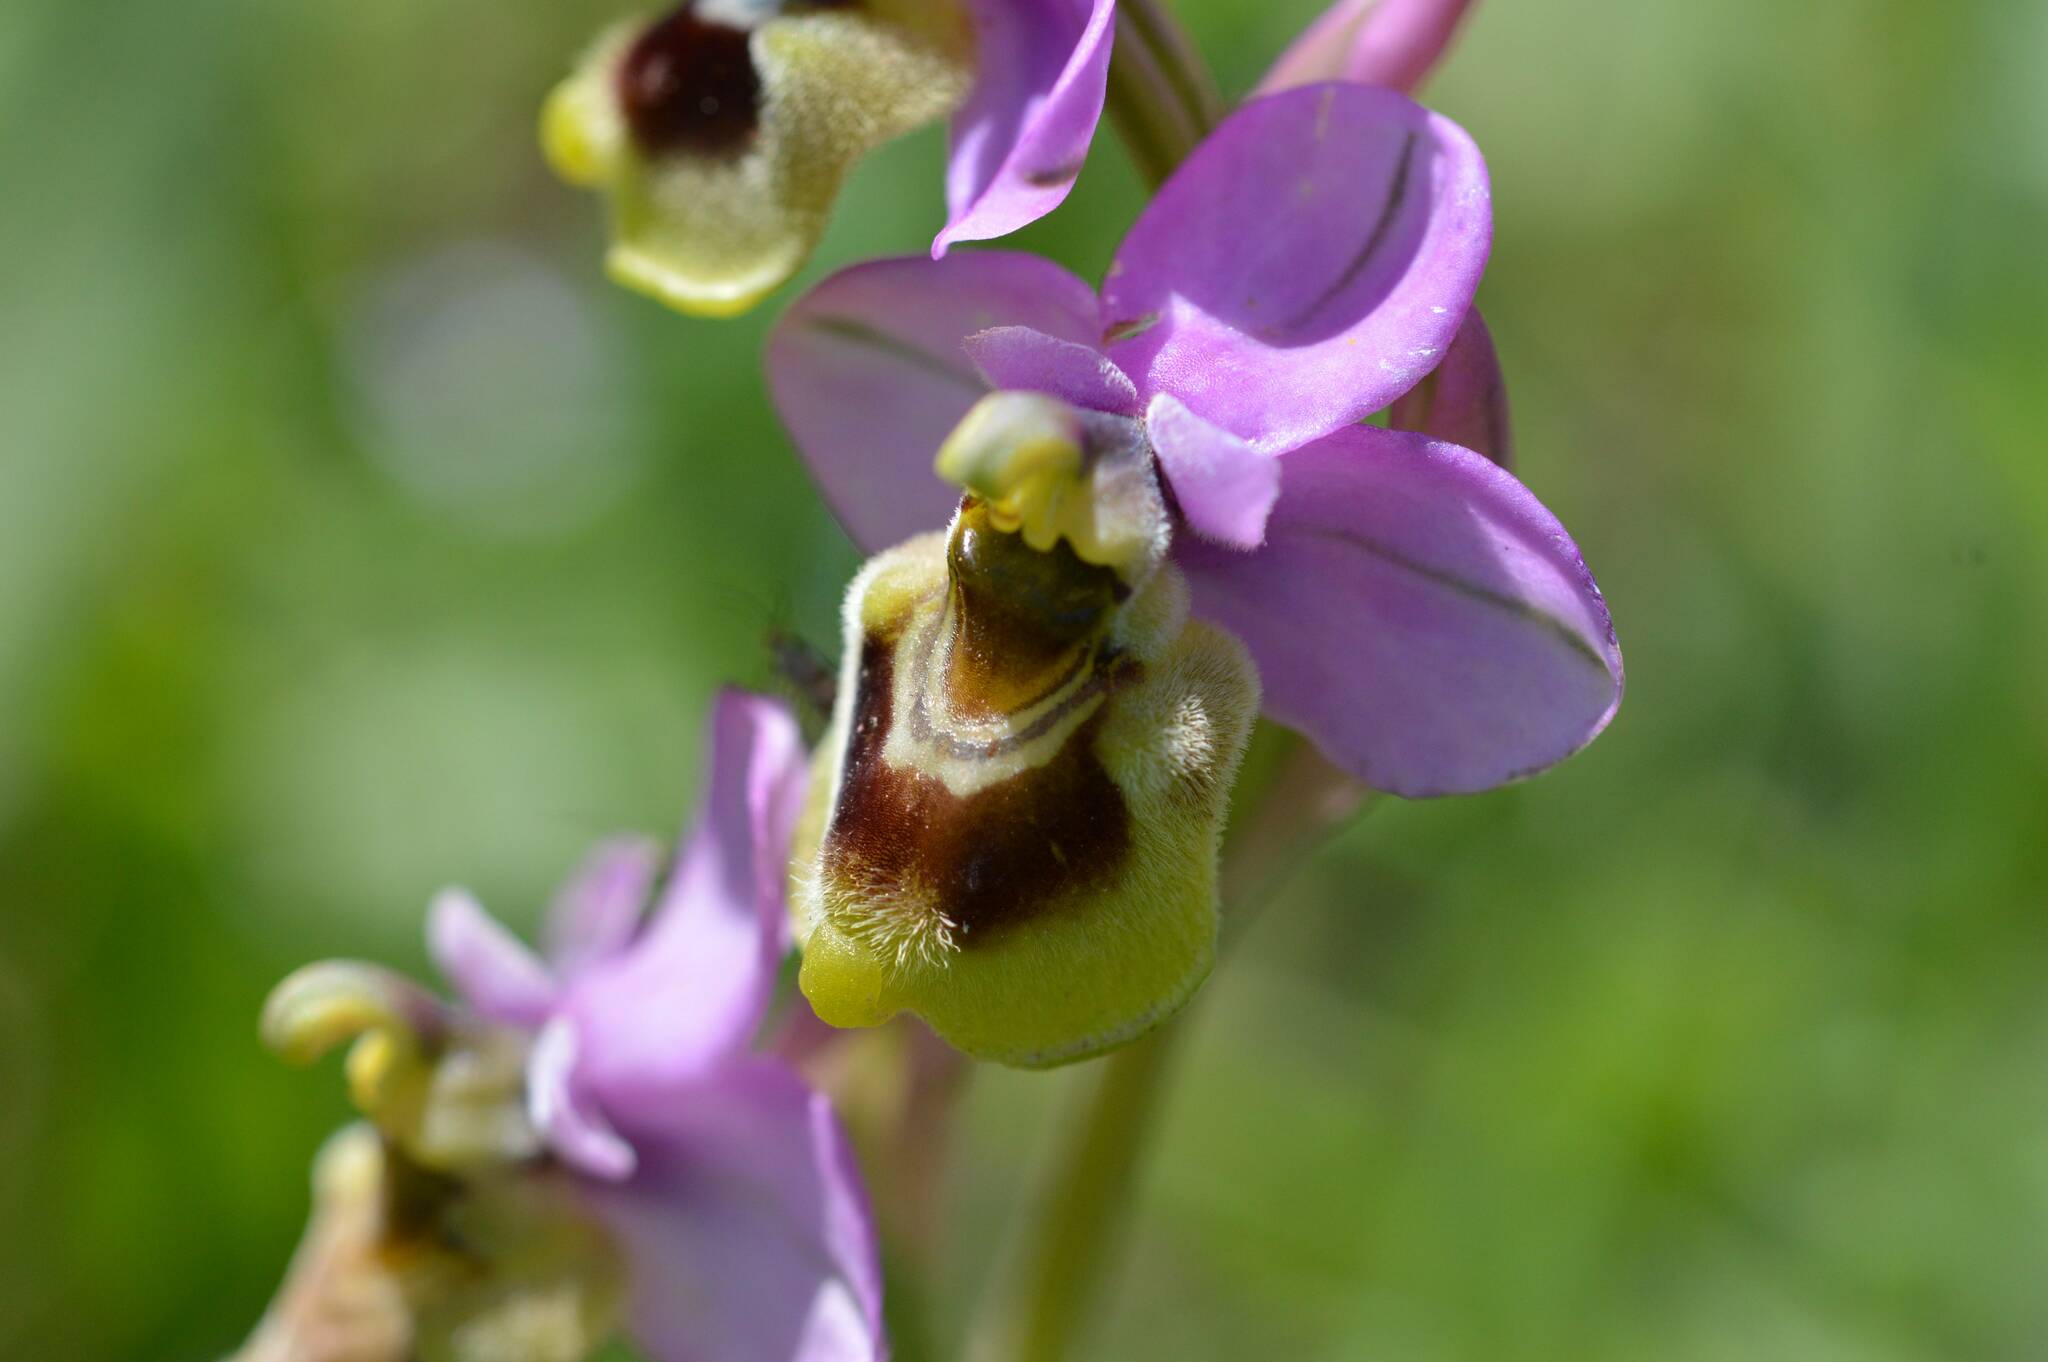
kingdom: Plantae
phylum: Tracheophyta
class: Liliopsida
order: Asparagales
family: Orchidaceae
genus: Ophrys
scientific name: Ophrys tenthredinifera
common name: Sawfly orchid
